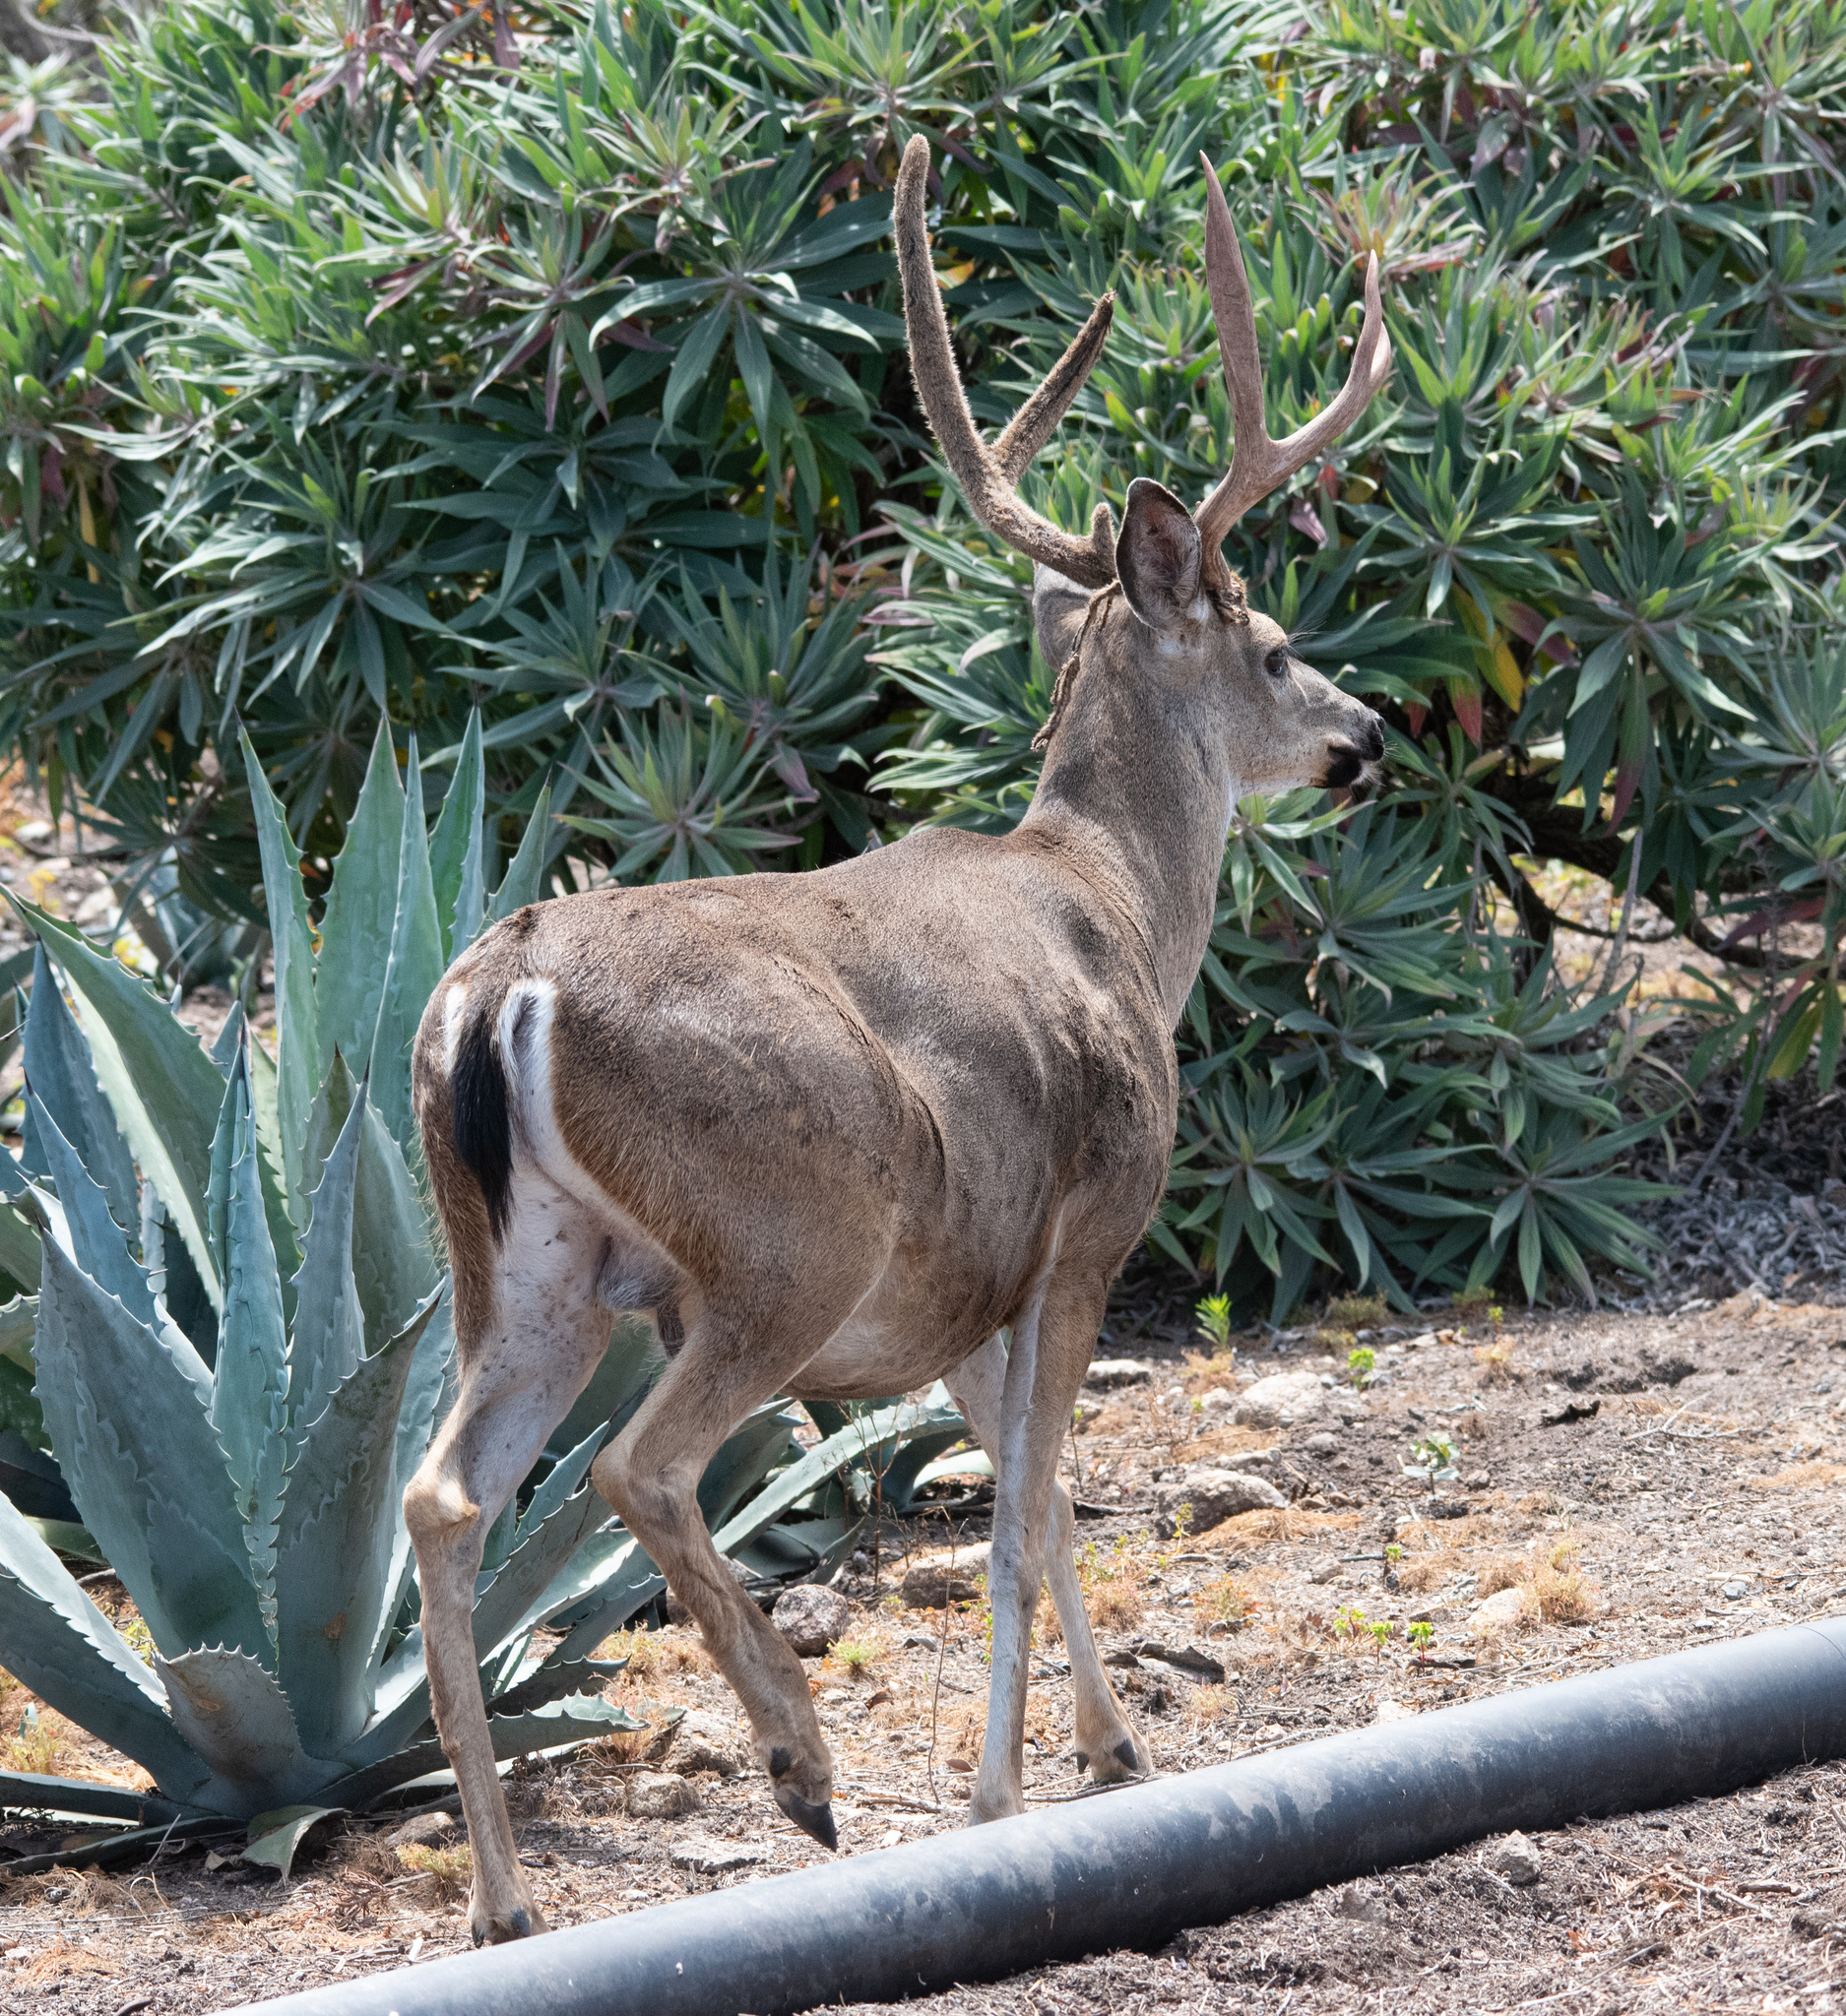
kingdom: Animalia
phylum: Chordata
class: Mammalia
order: Artiodactyla
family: Cervidae
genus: Odocoileus
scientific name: Odocoileus hemionus
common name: Mule deer
